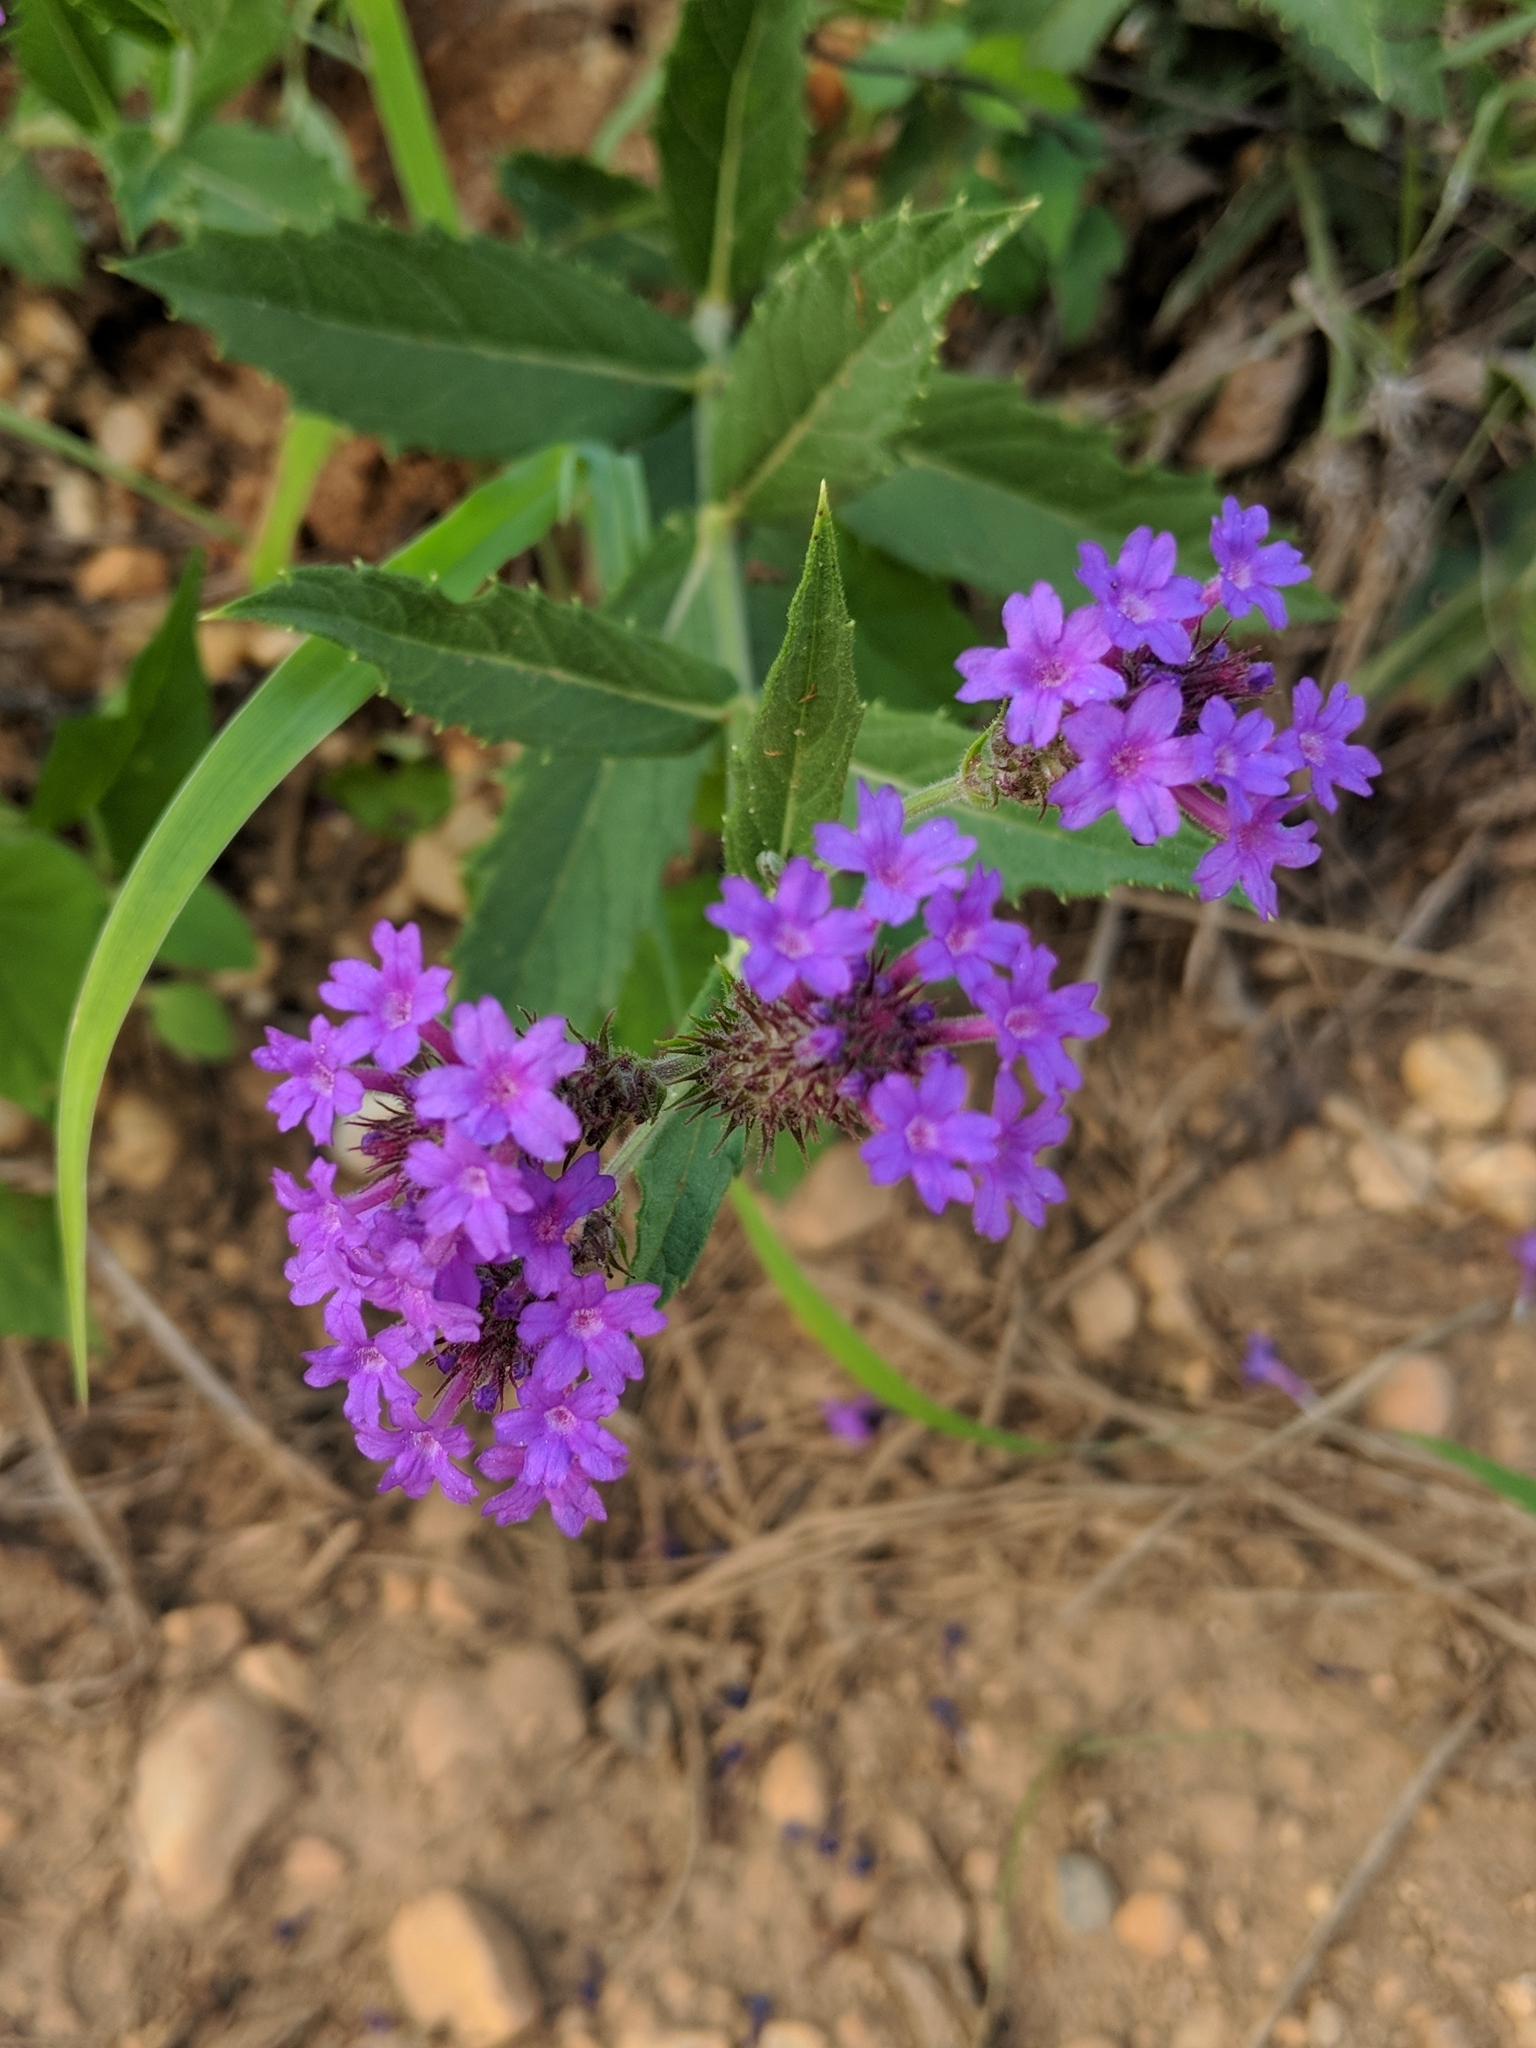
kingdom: Plantae
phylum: Tracheophyta
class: Magnoliopsida
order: Lamiales
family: Verbenaceae
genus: Verbena
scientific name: Verbena rigida
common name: Slender vervain
